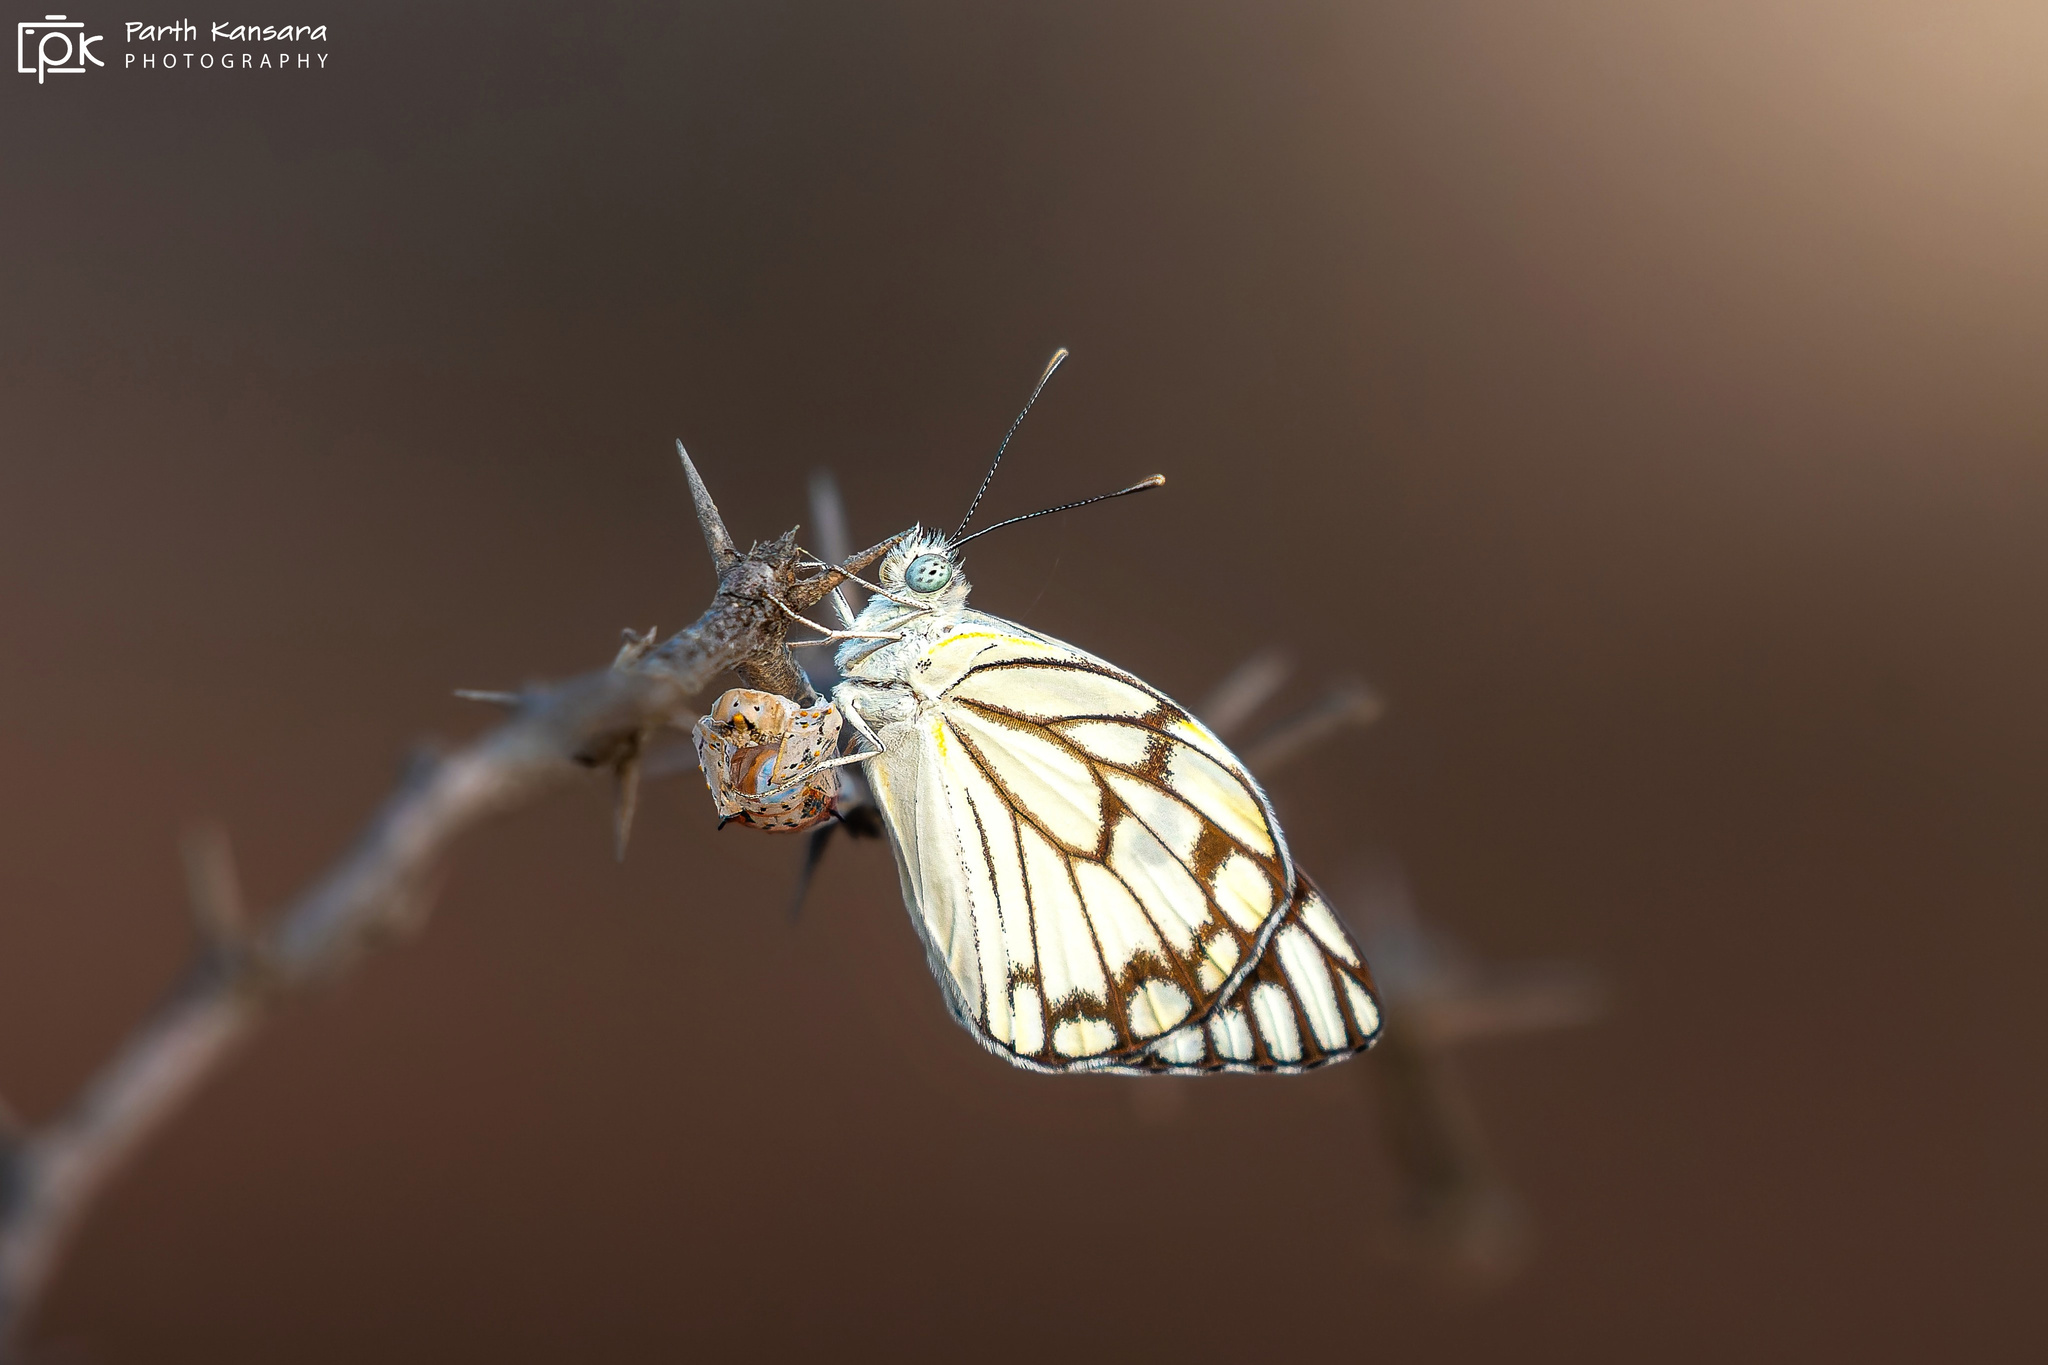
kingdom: Animalia
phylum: Arthropoda
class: Insecta
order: Lepidoptera
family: Pieridae
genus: Belenois
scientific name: Belenois aurota
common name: Brown-veined white
